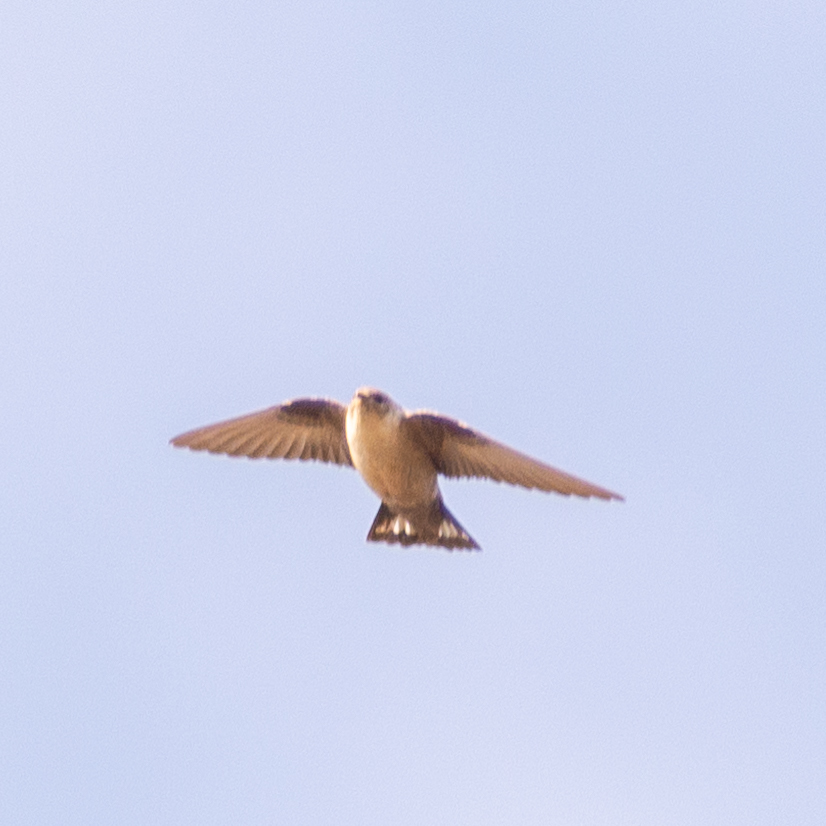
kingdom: Animalia
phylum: Chordata
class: Aves
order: Passeriformes
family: Hirundinidae
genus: Ptyonoprogne
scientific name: Ptyonoprogne rupestris
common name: Eurasian crag martin
